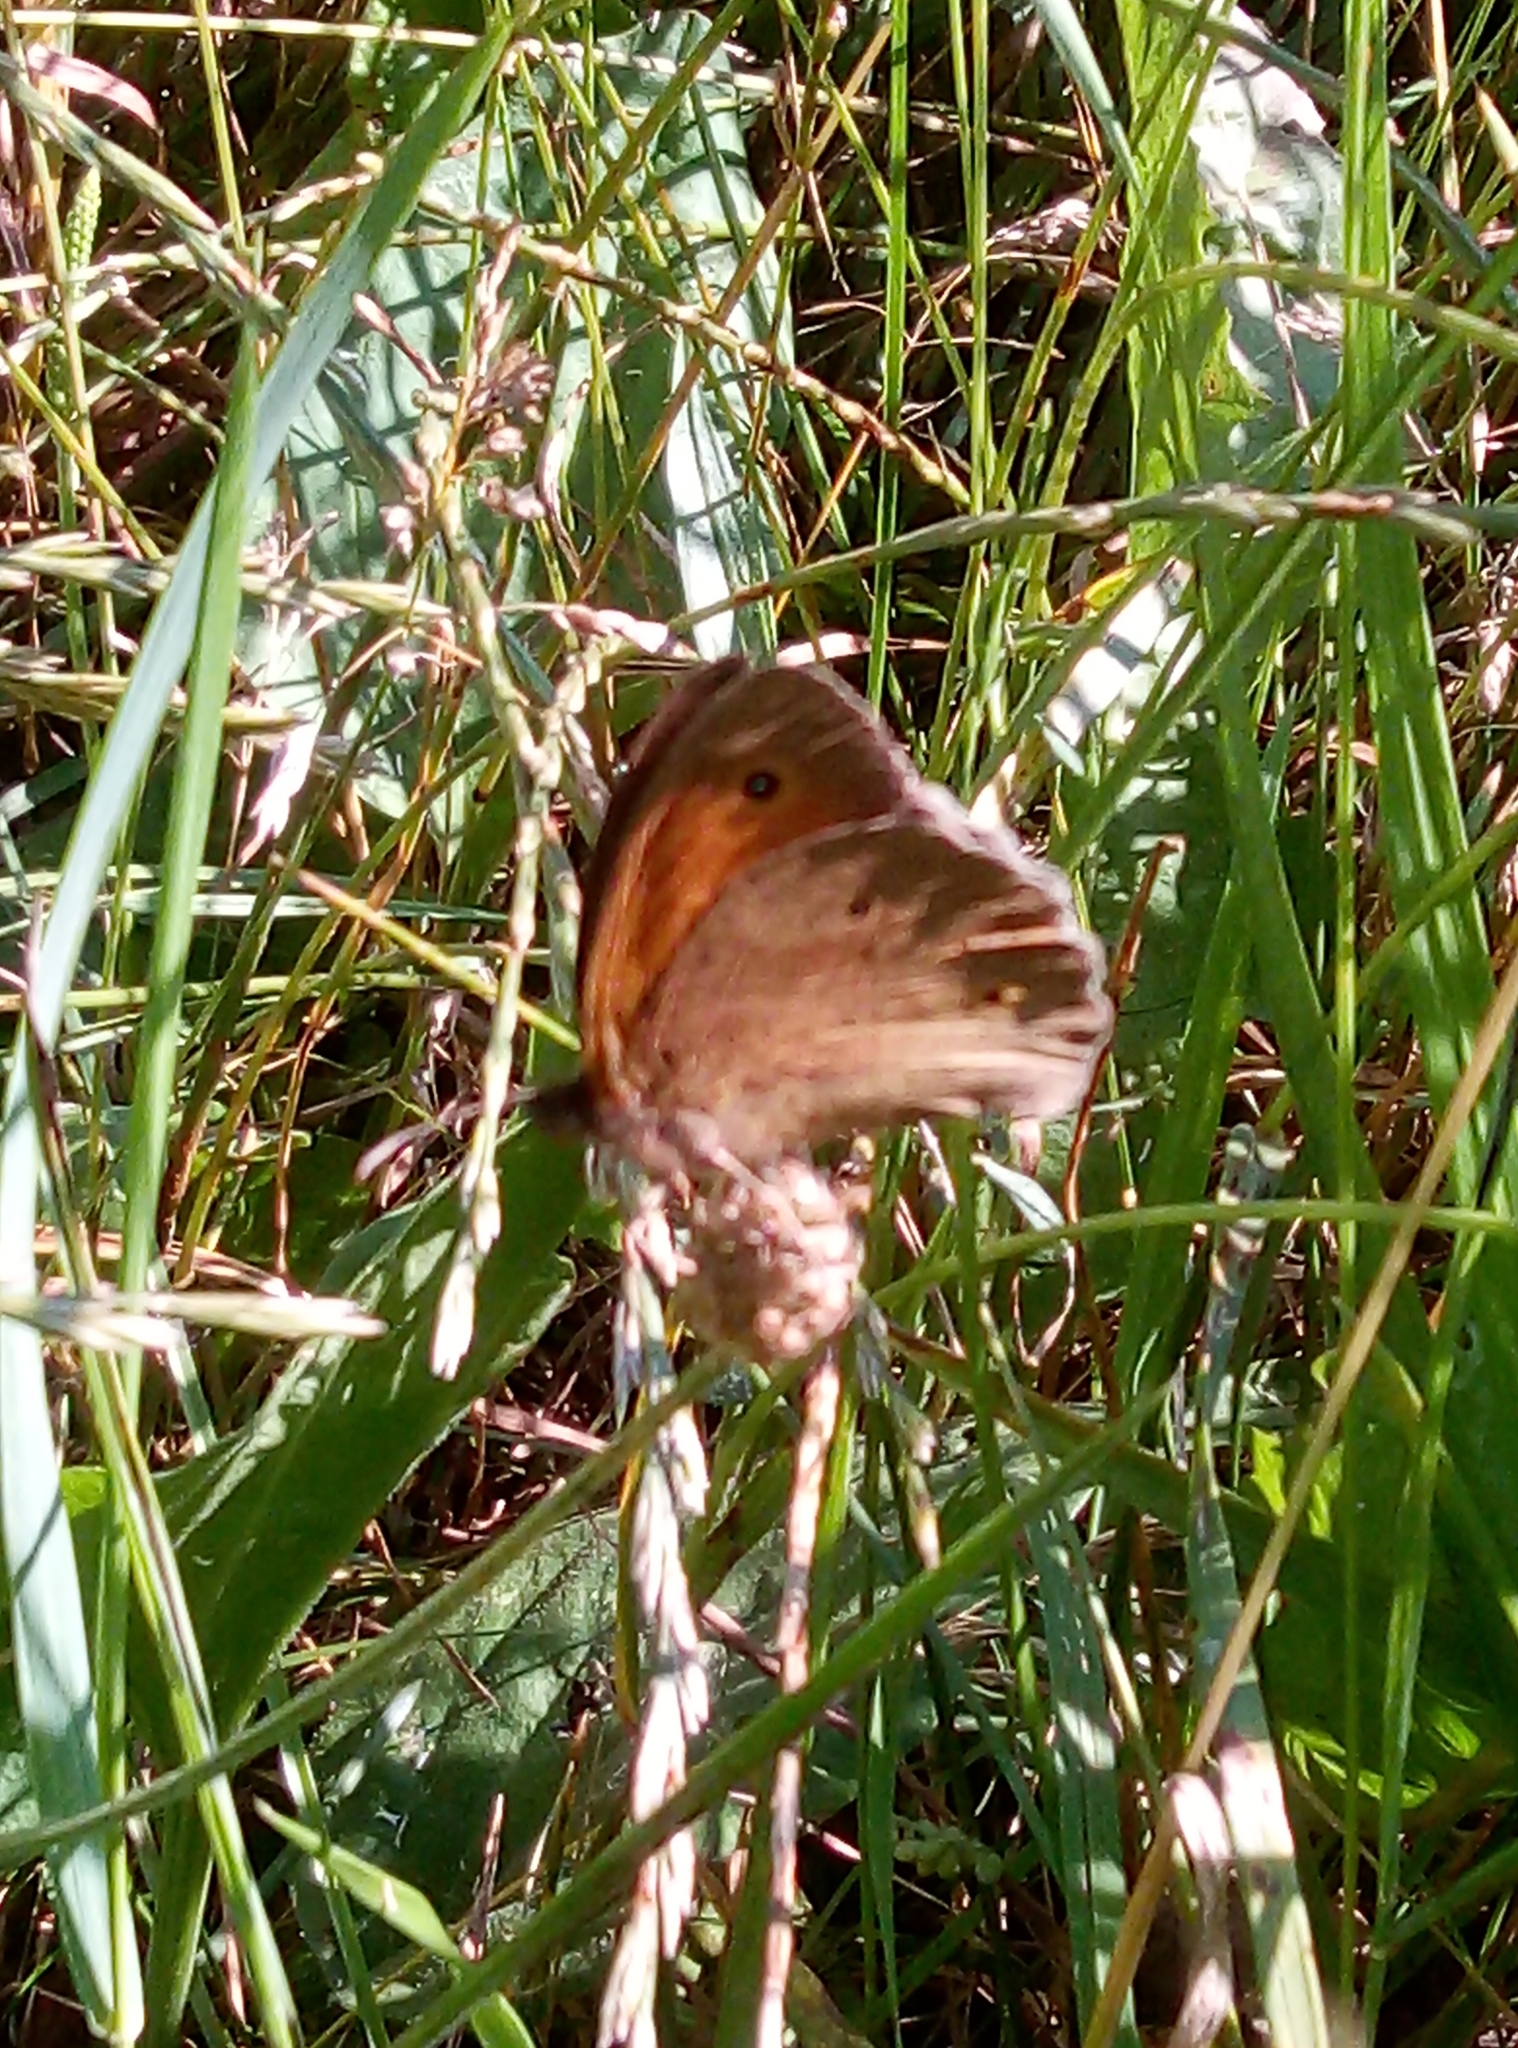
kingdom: Animalia
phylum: Arthropoda
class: Insecta
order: Lepidoptera
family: Nymphalidae
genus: Maniola
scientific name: Maniola jurtina
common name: Meadow brown
